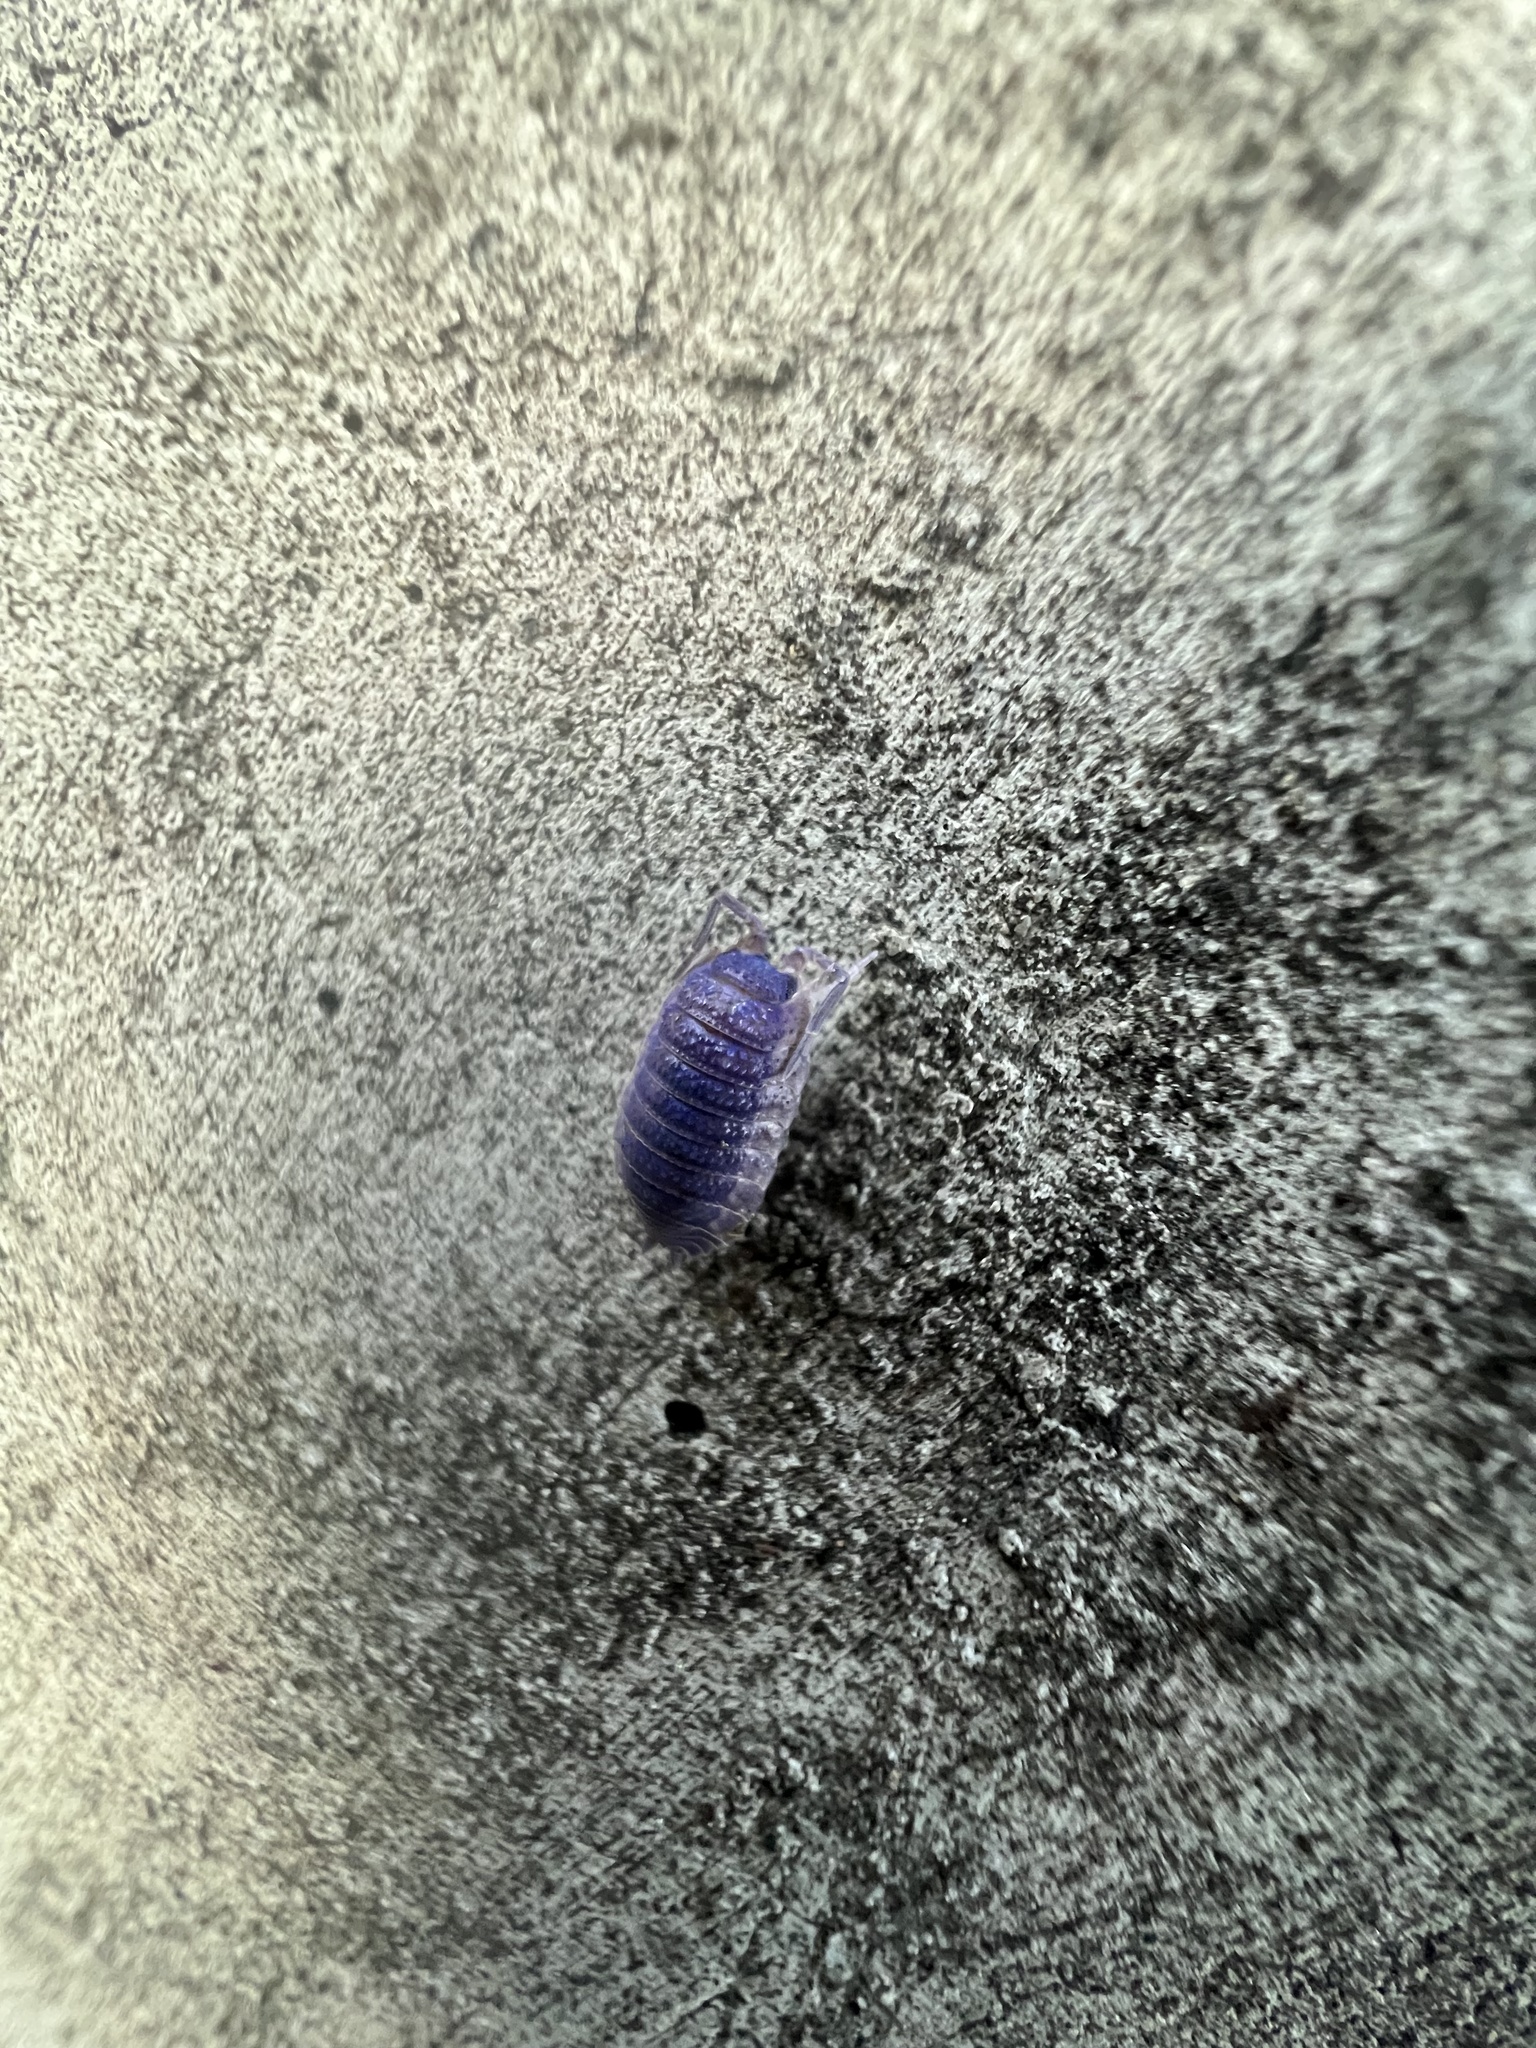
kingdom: Viruses
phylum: Nucleocytoviricota
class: Megaviricetes
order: Pimascovirales
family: Iridoviridae
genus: Iridovirus
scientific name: Iridovirus Invertebrate iridescent virus 31
